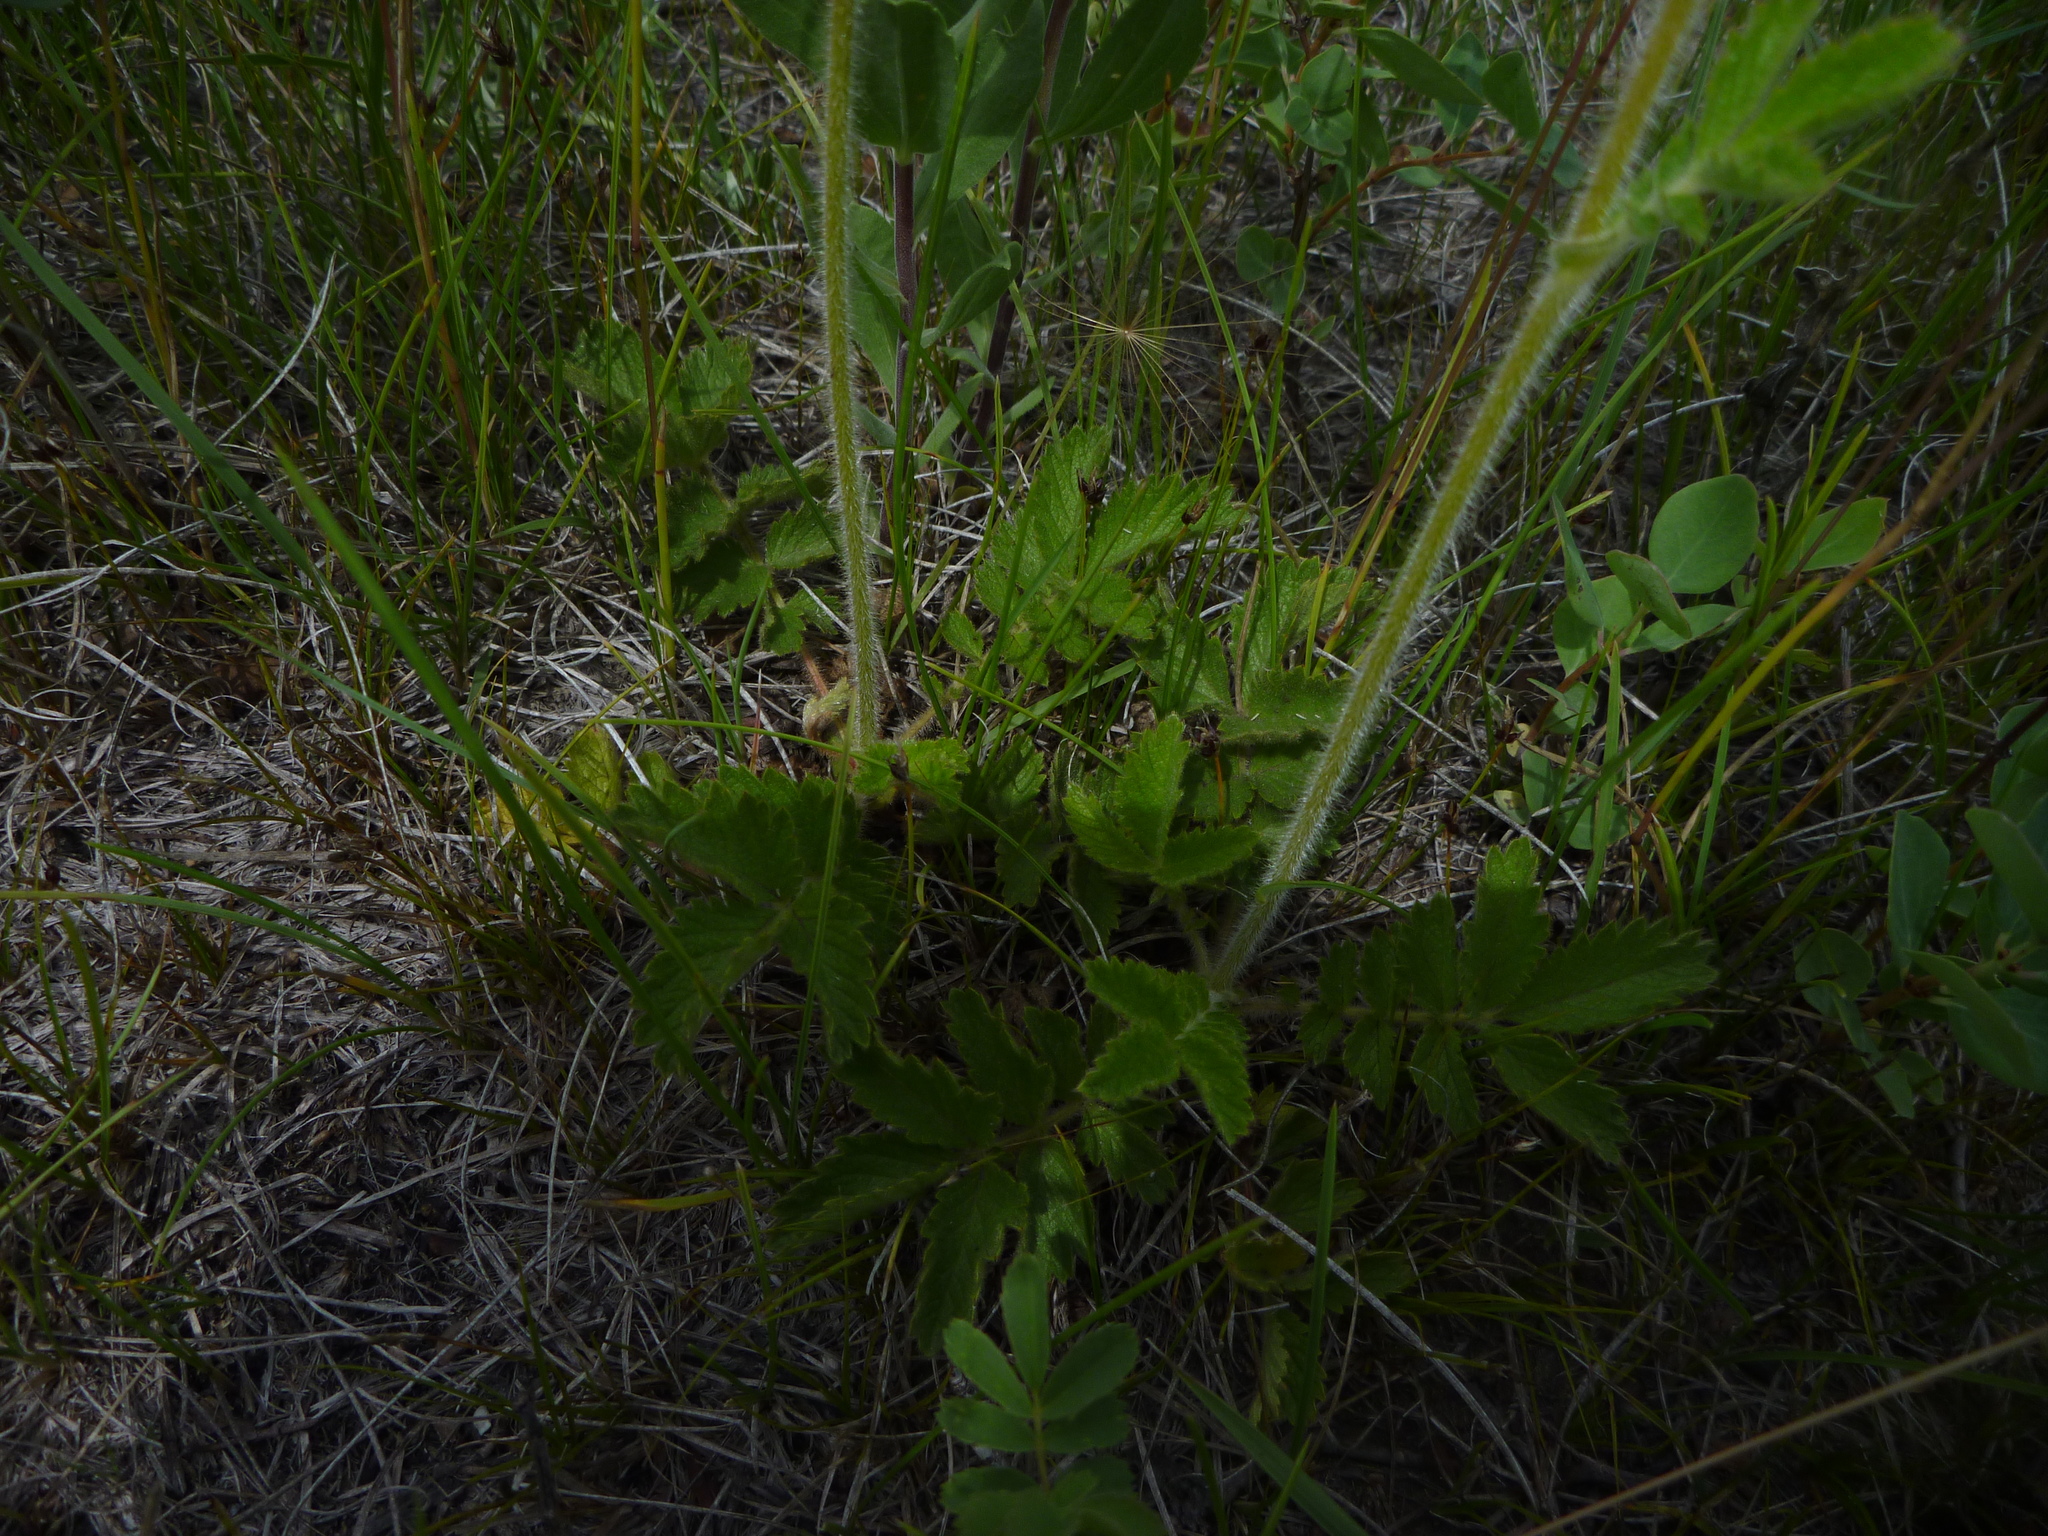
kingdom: Plantae
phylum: Tracheophyta
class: Magnoliopsida
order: Rosales
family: Rosaceae
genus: Drymocallis
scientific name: Drymocallis arguta
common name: Tall cinquefoil
